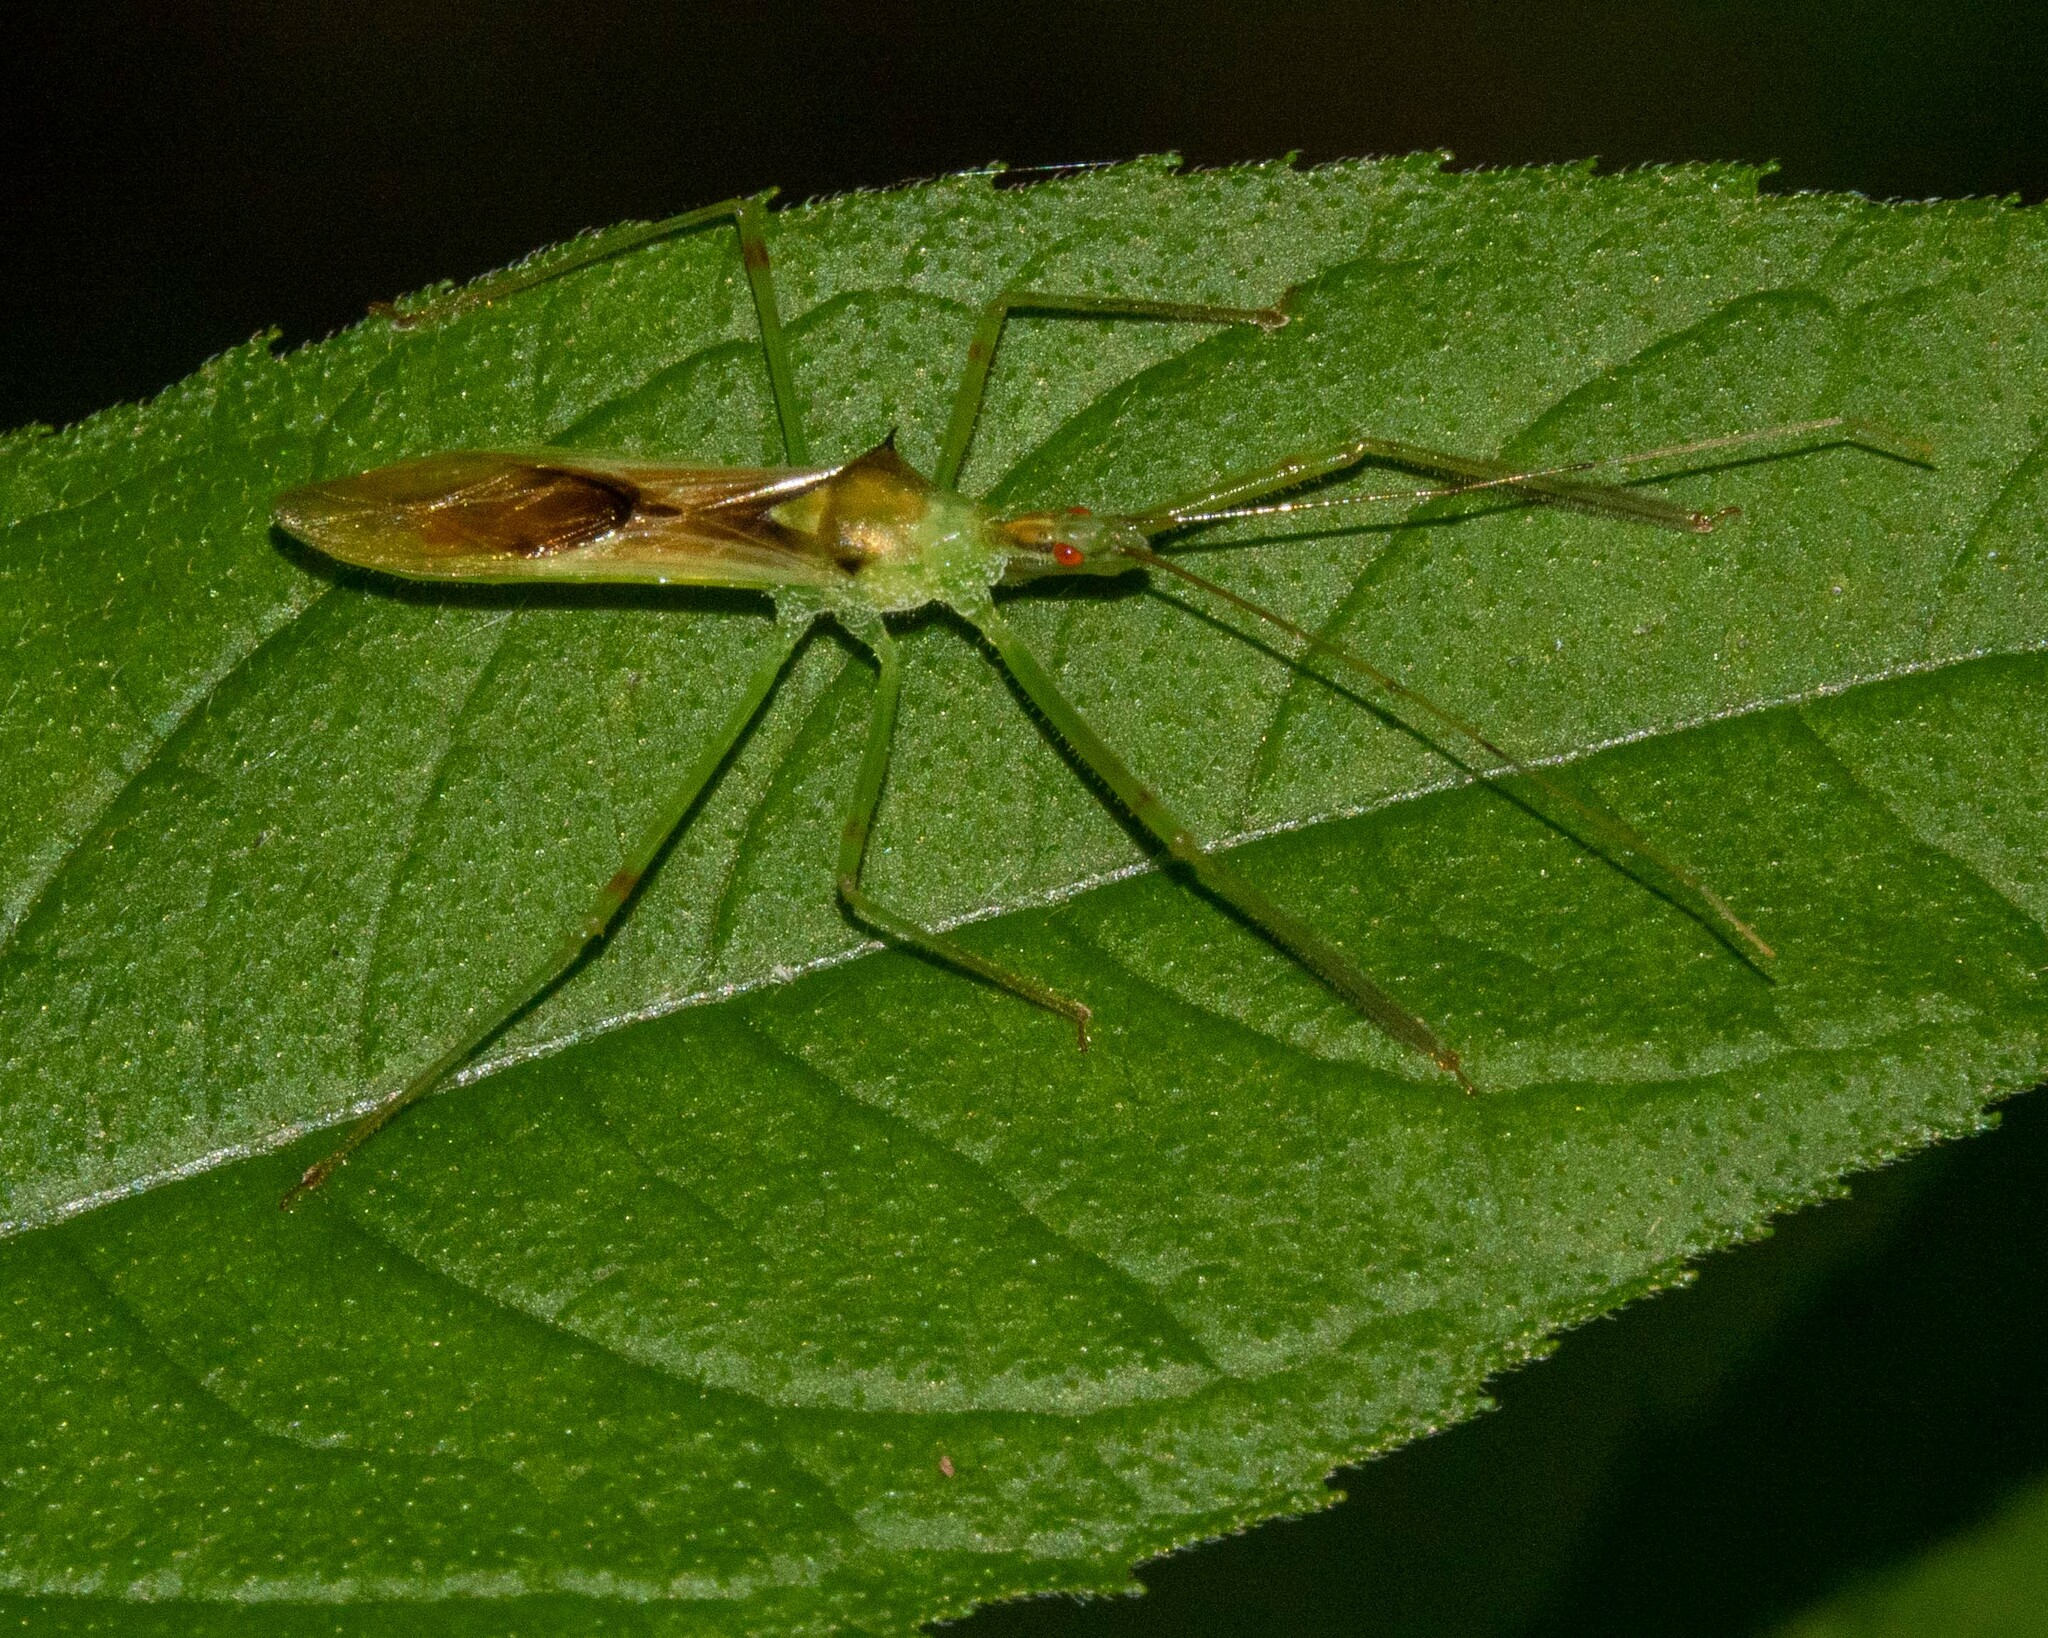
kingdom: Animalia
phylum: Arthropoda
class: Insecta
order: Hemiptera
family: Reduviidae
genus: Zelus
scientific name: Zelus luridus
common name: Pale green assassin bug
